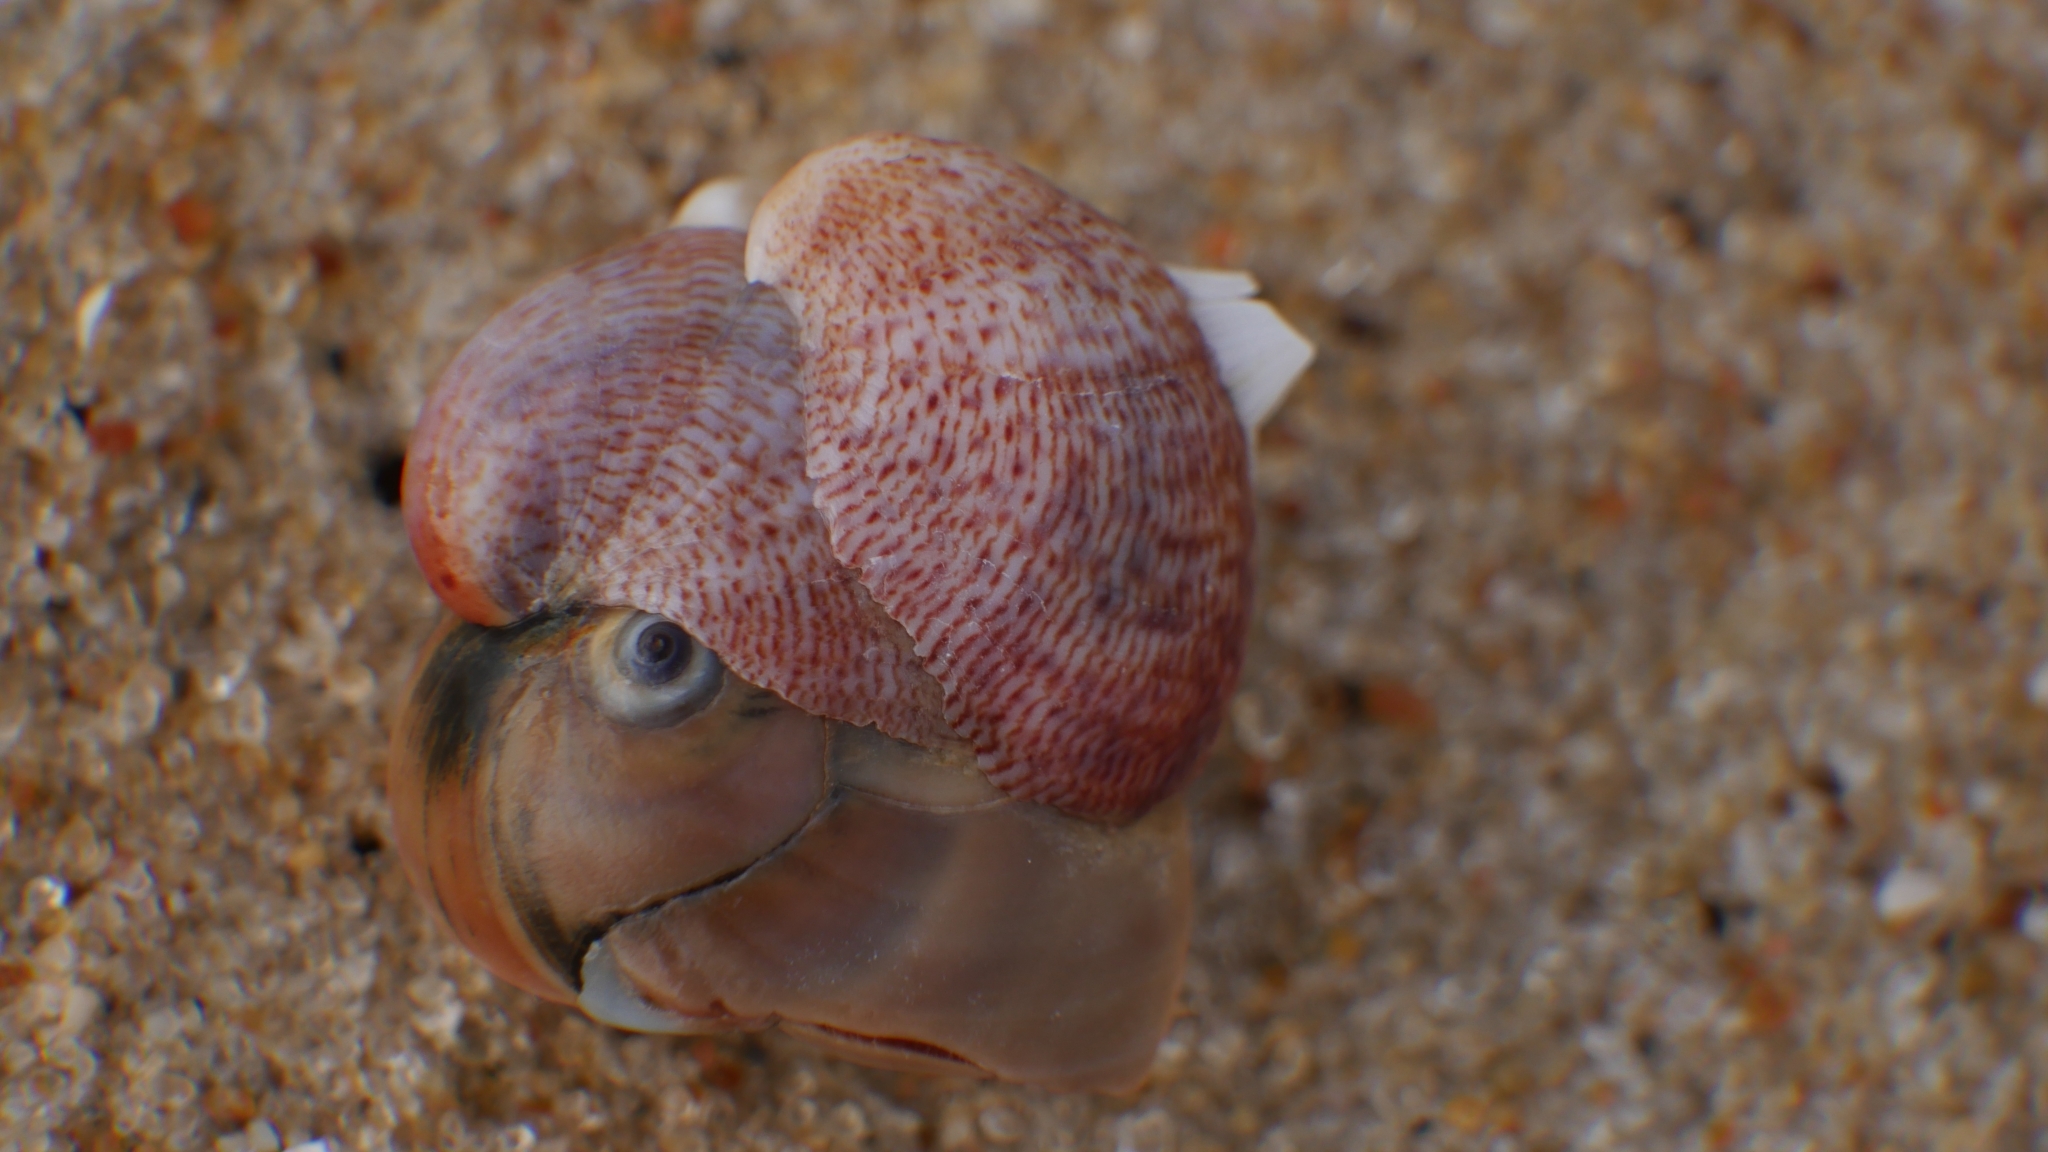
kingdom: Animalia
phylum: Mollusca
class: Gastropoda
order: Littorinimorpha
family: Calyptraeidae
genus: Crepidula
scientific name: Crepidula fornicata
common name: Slipper limpet
